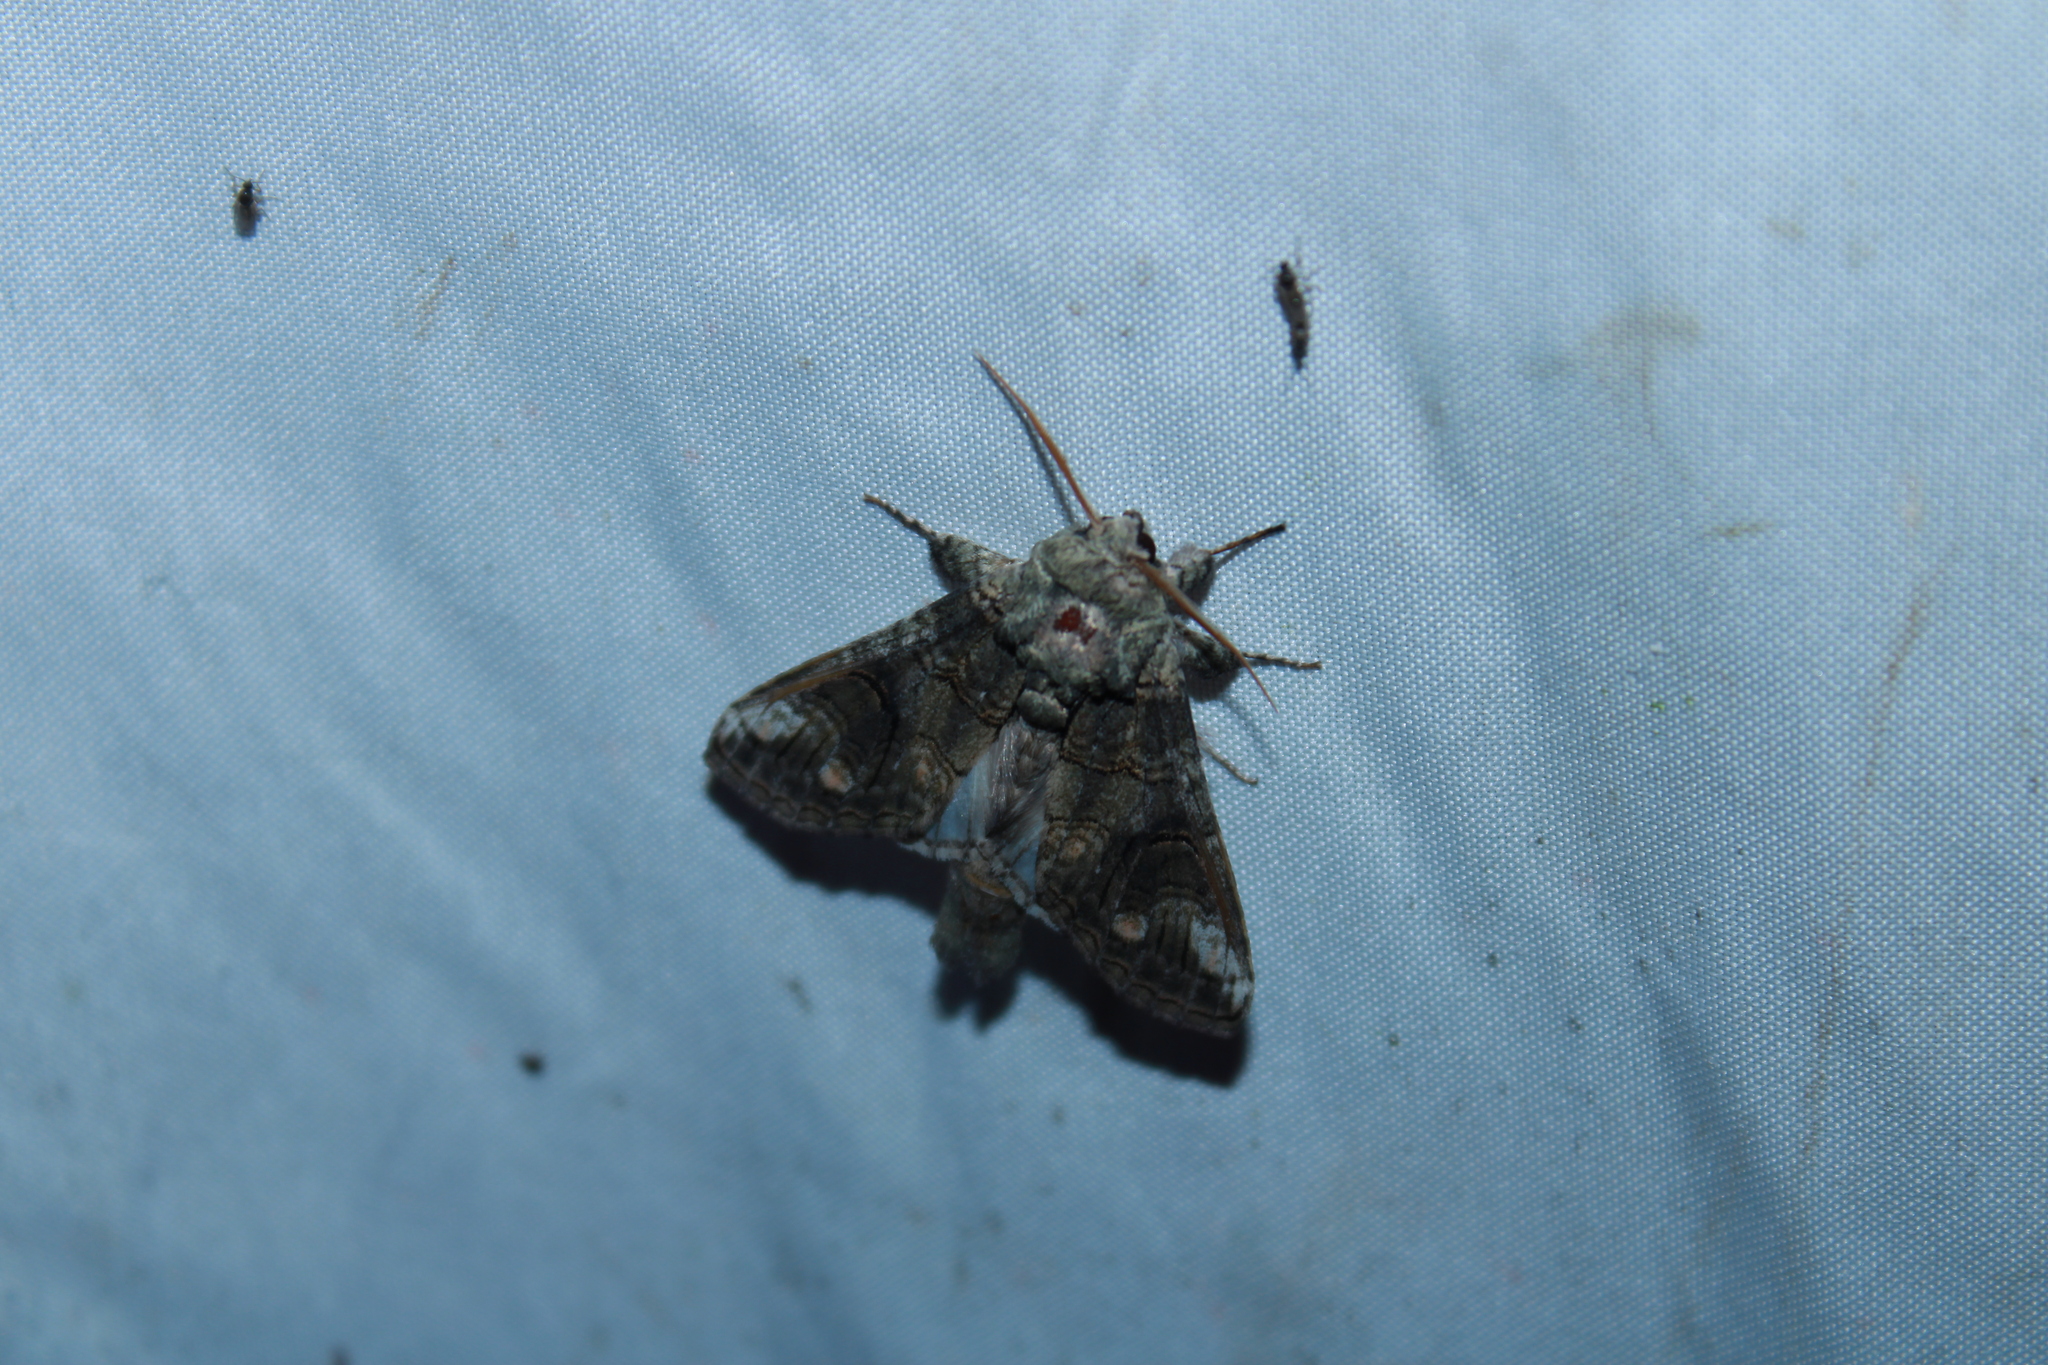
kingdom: Animalia
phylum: Arthropoda
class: Insecta
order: Lepidoptera
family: Notodontidae
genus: Heterocampa
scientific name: Heterocampa obliqua
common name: Oblique heterocampa
